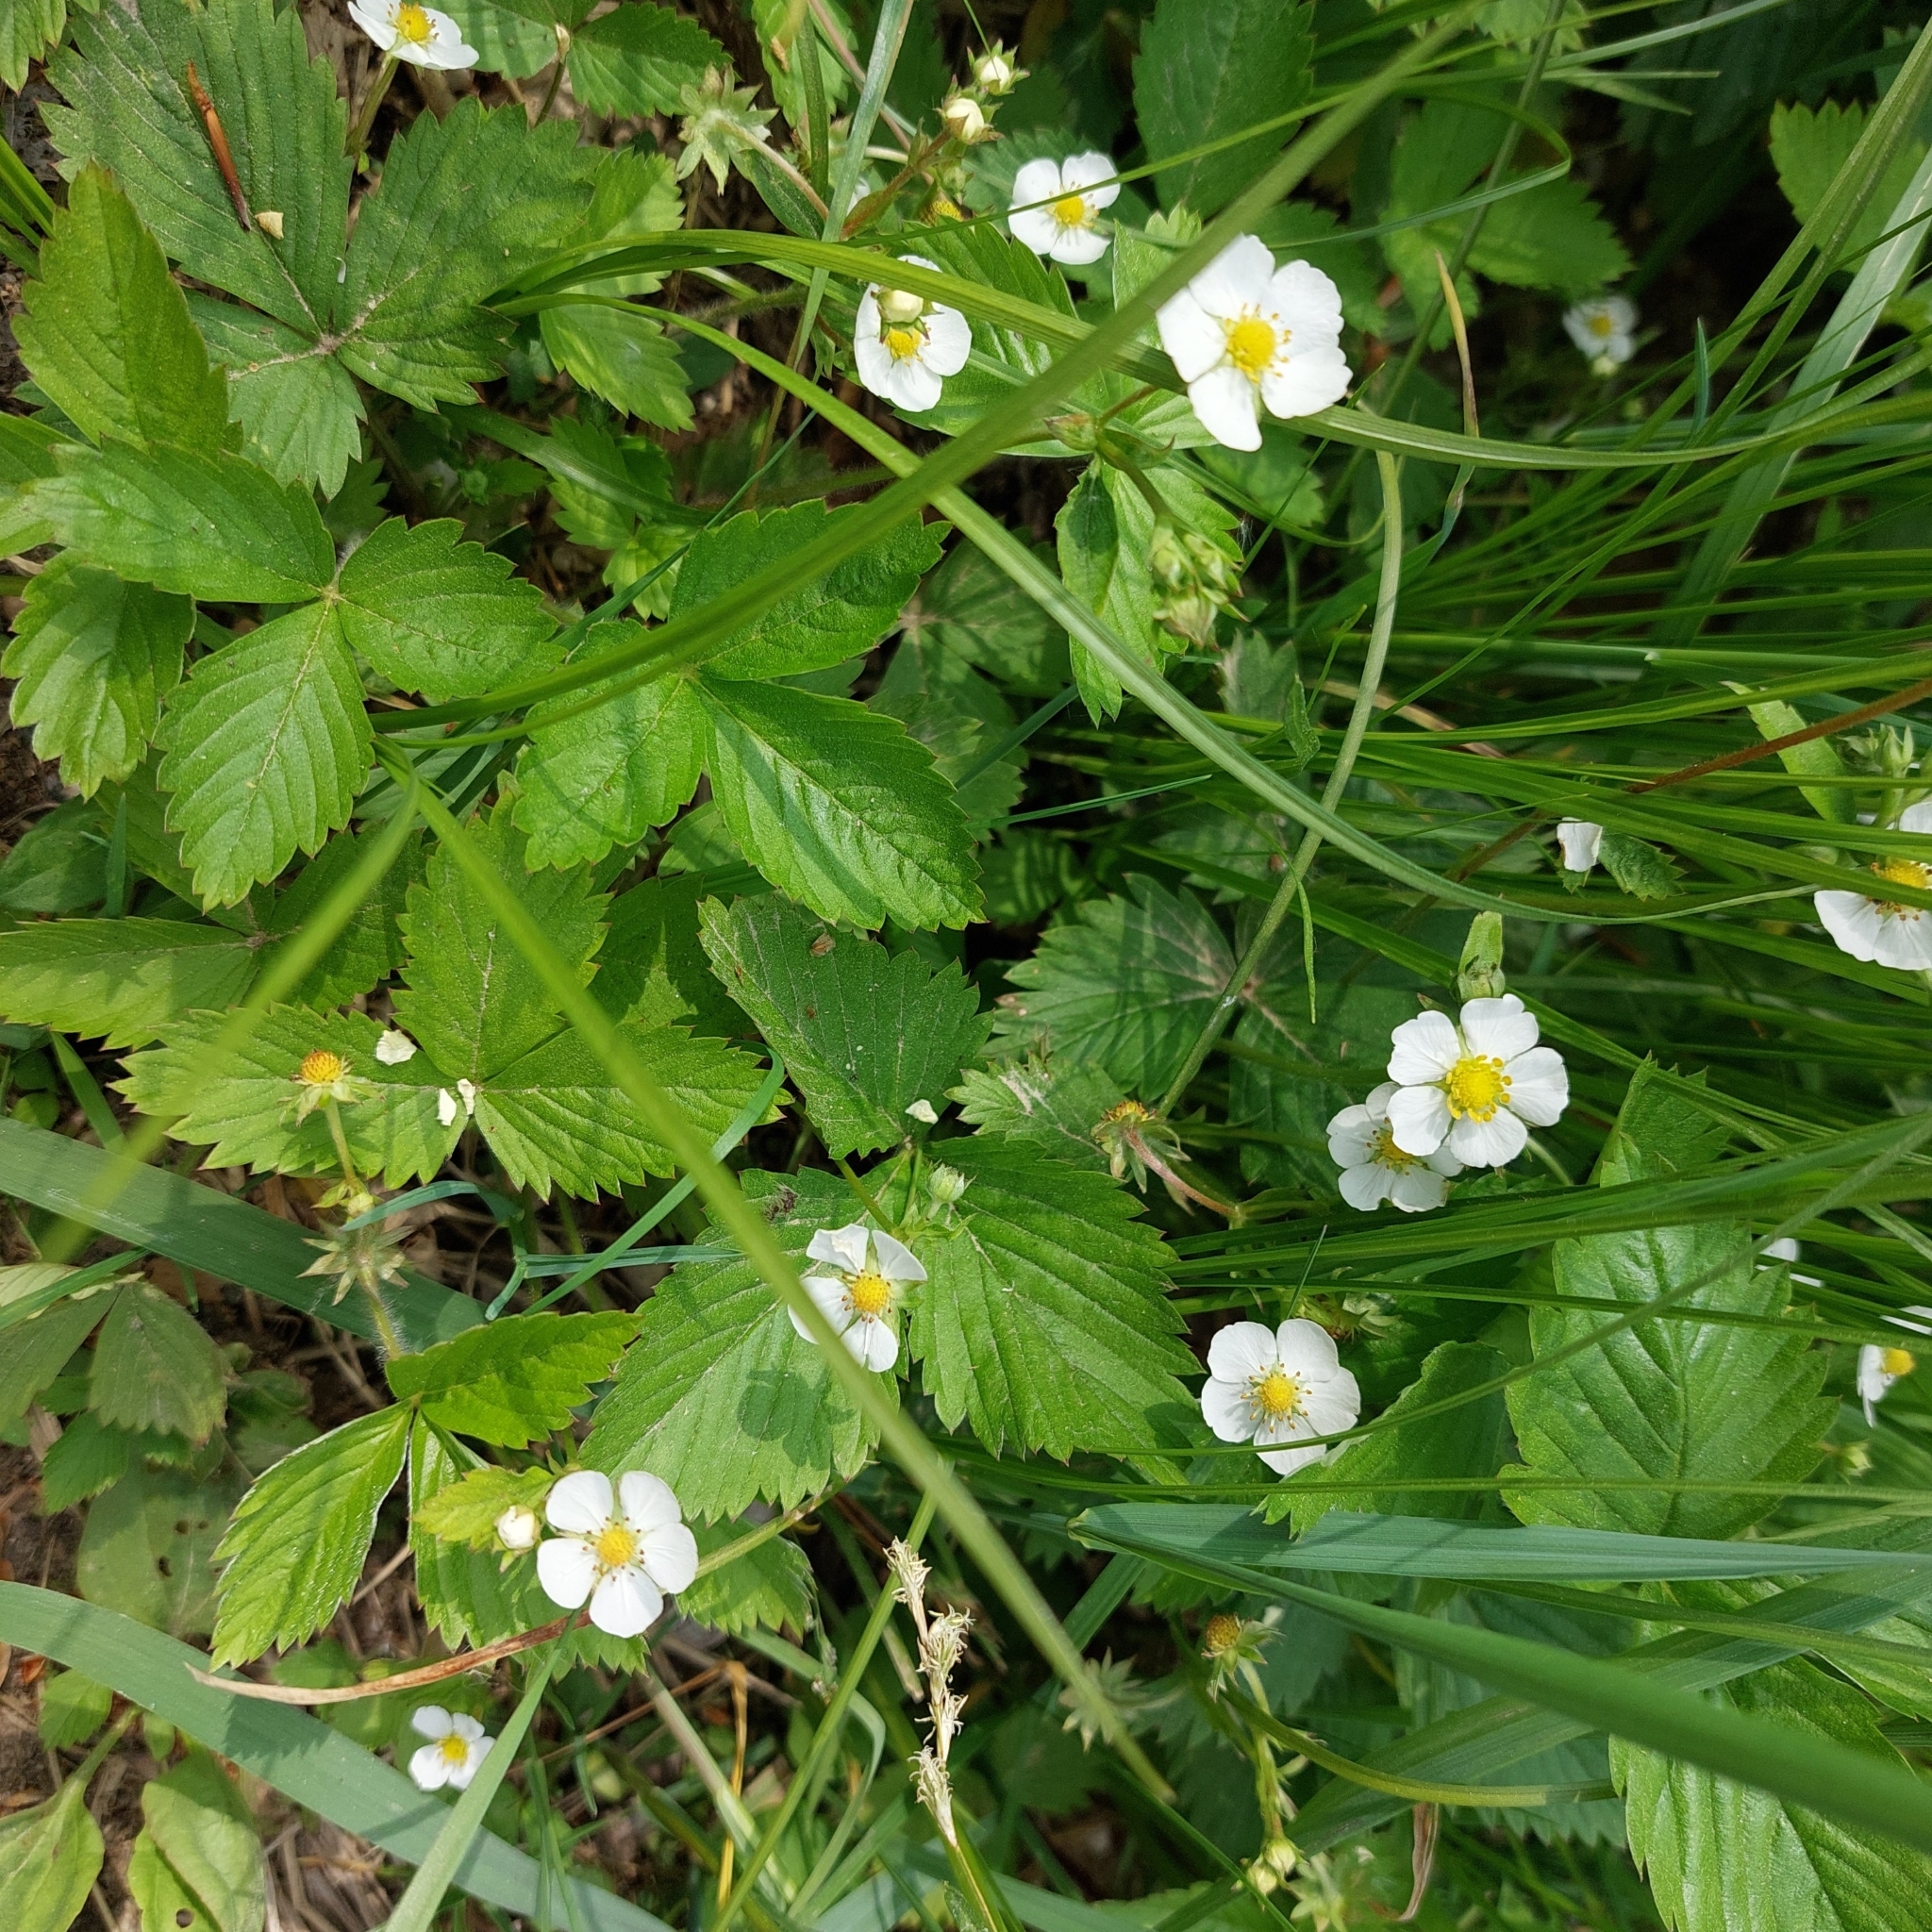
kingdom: Plantae
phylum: Tracheophyta
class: Magnoliopsida
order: Rosales
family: Rosaceae
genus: Fragaria
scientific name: Fragaria vesca
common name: Wild strawberry
